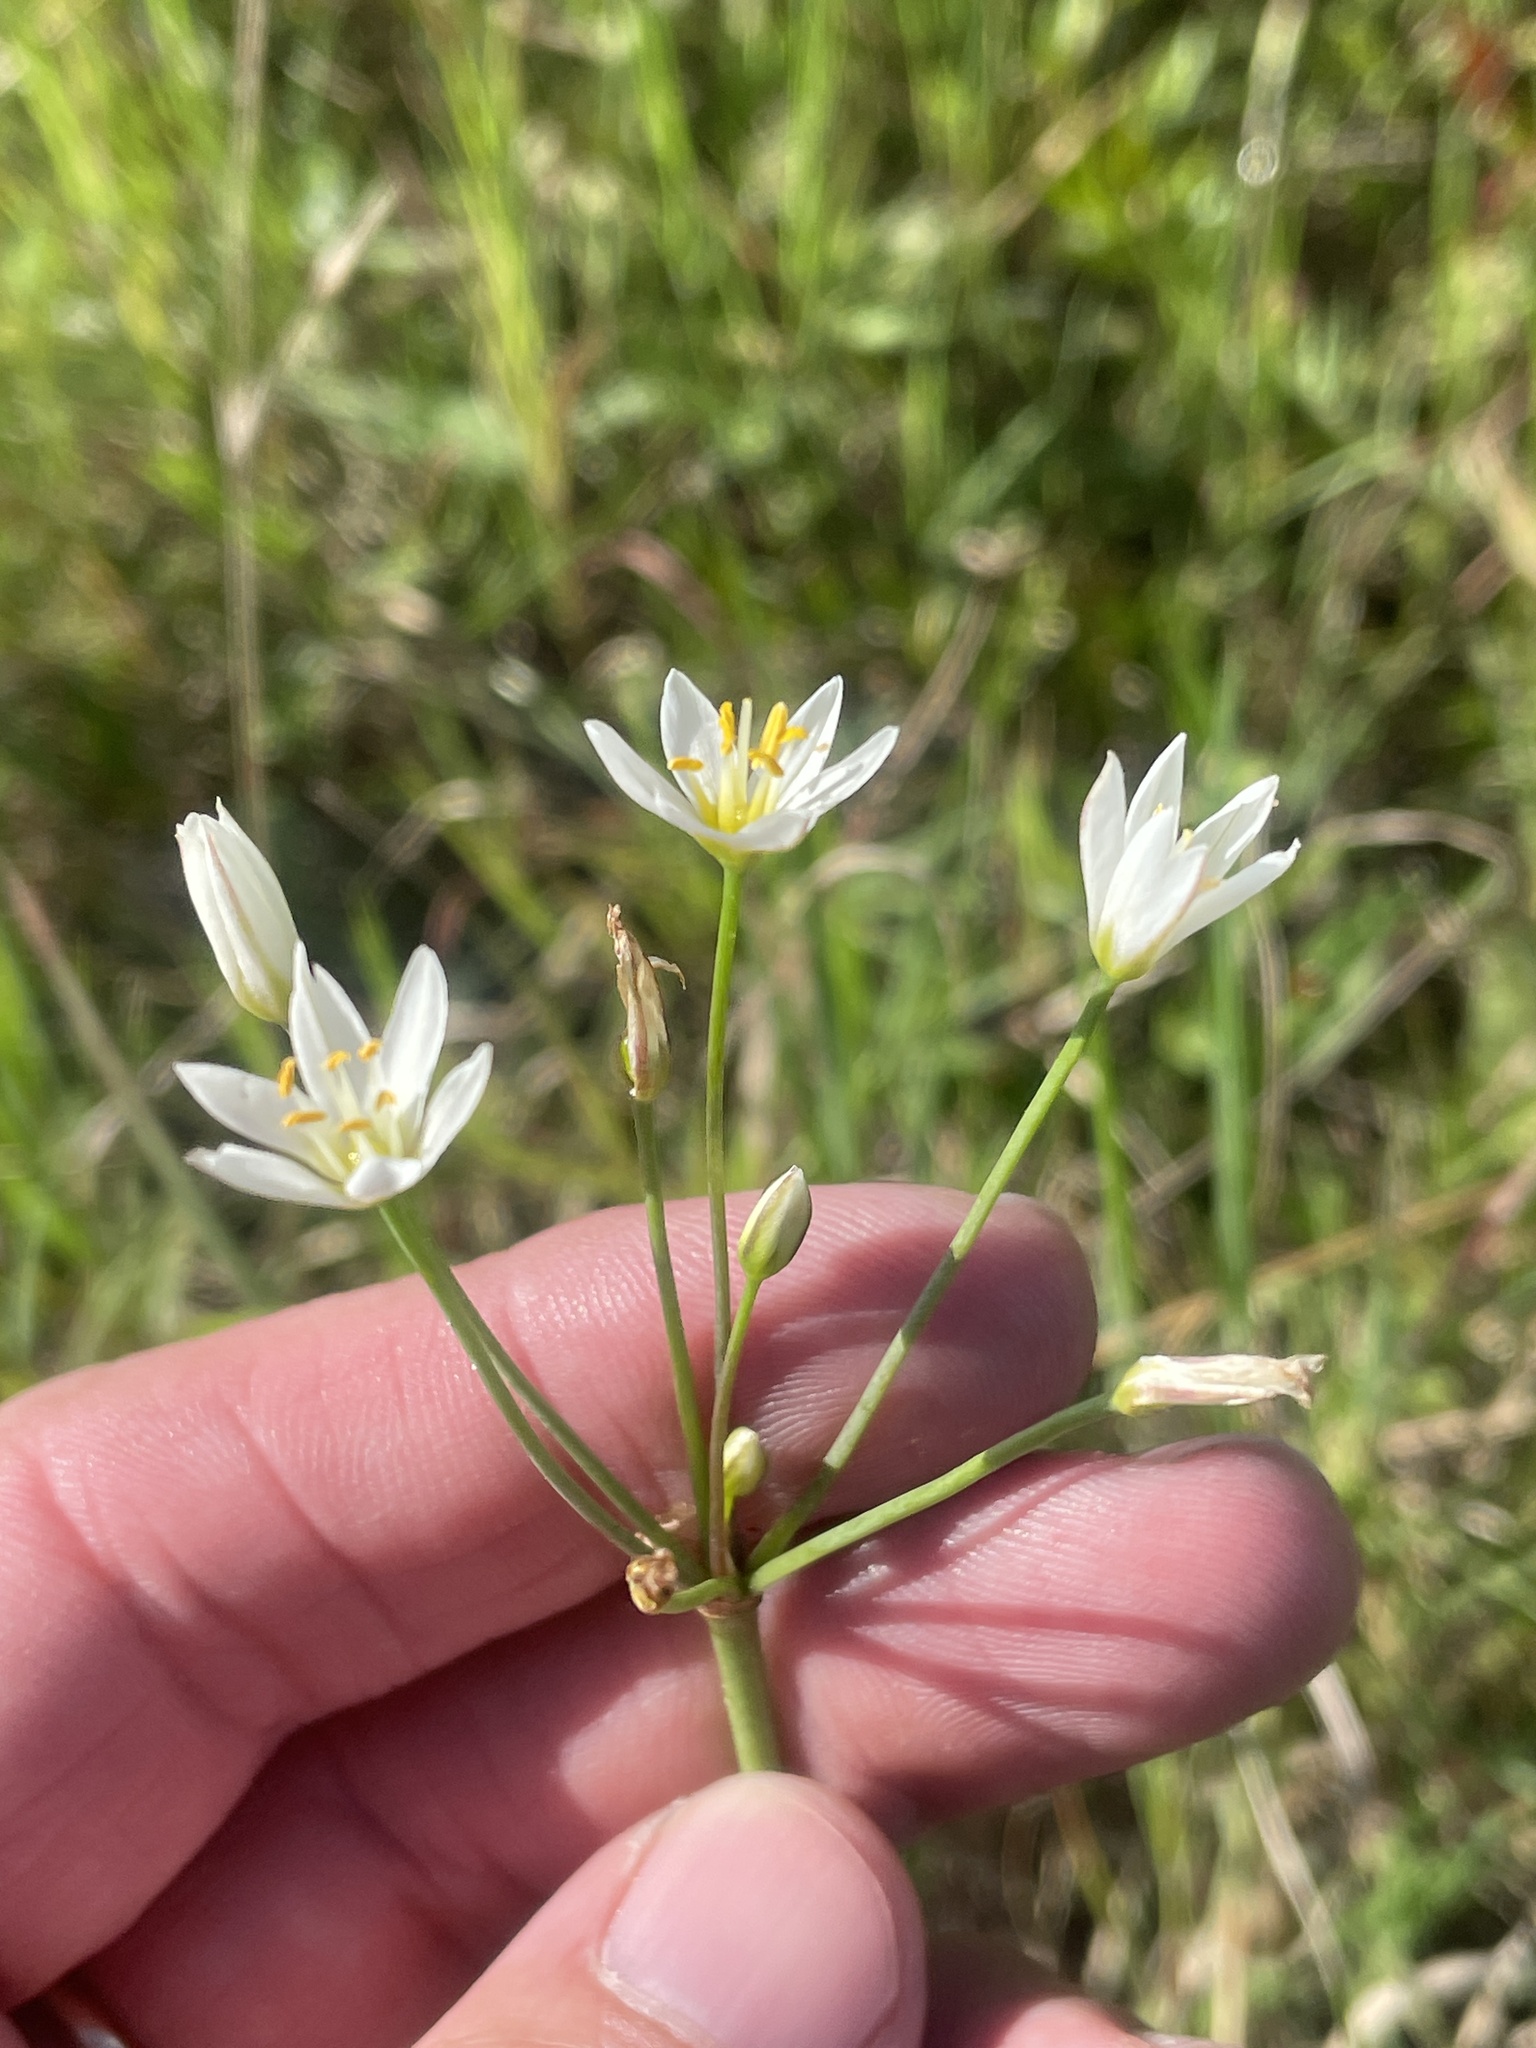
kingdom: Plantae
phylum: Tracheophyta
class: Liliopsida
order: Asparagales
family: Amaryllidaceae
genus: Nothoscordum
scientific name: Nothoscordum bivalve
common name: Crow-poison
